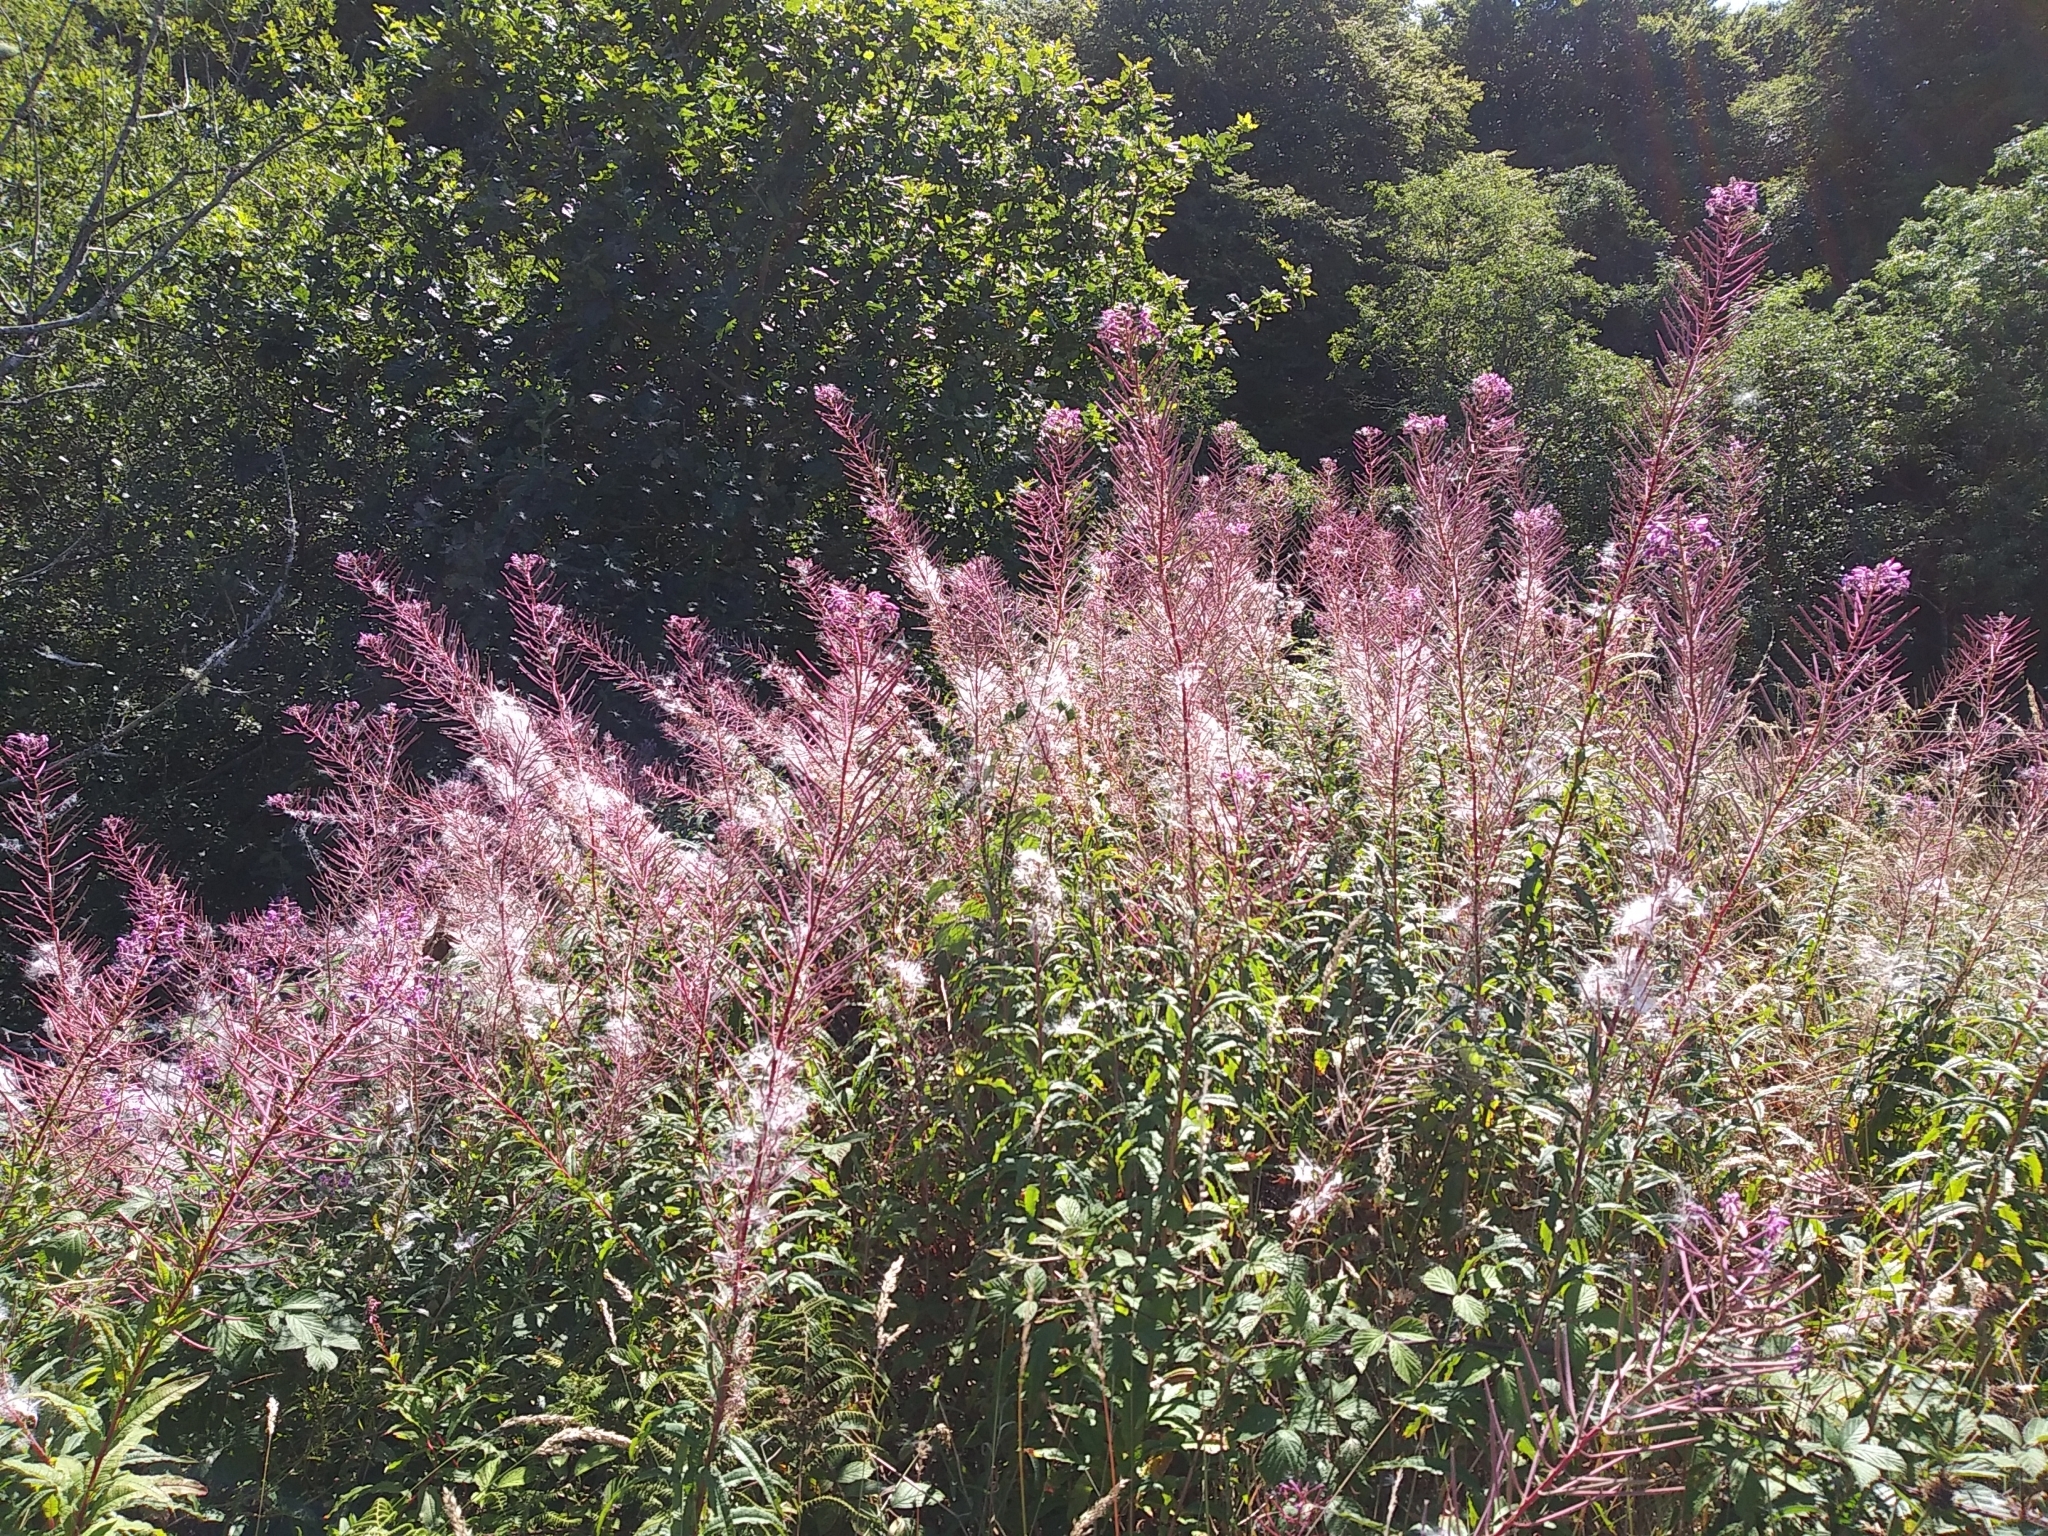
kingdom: Plantae
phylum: Tracheophyta
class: Magnoliopsida
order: Myrtales
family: Onagraceae
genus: Chamaenerion
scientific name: Chamaenerion angustifolium
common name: Fireweed
